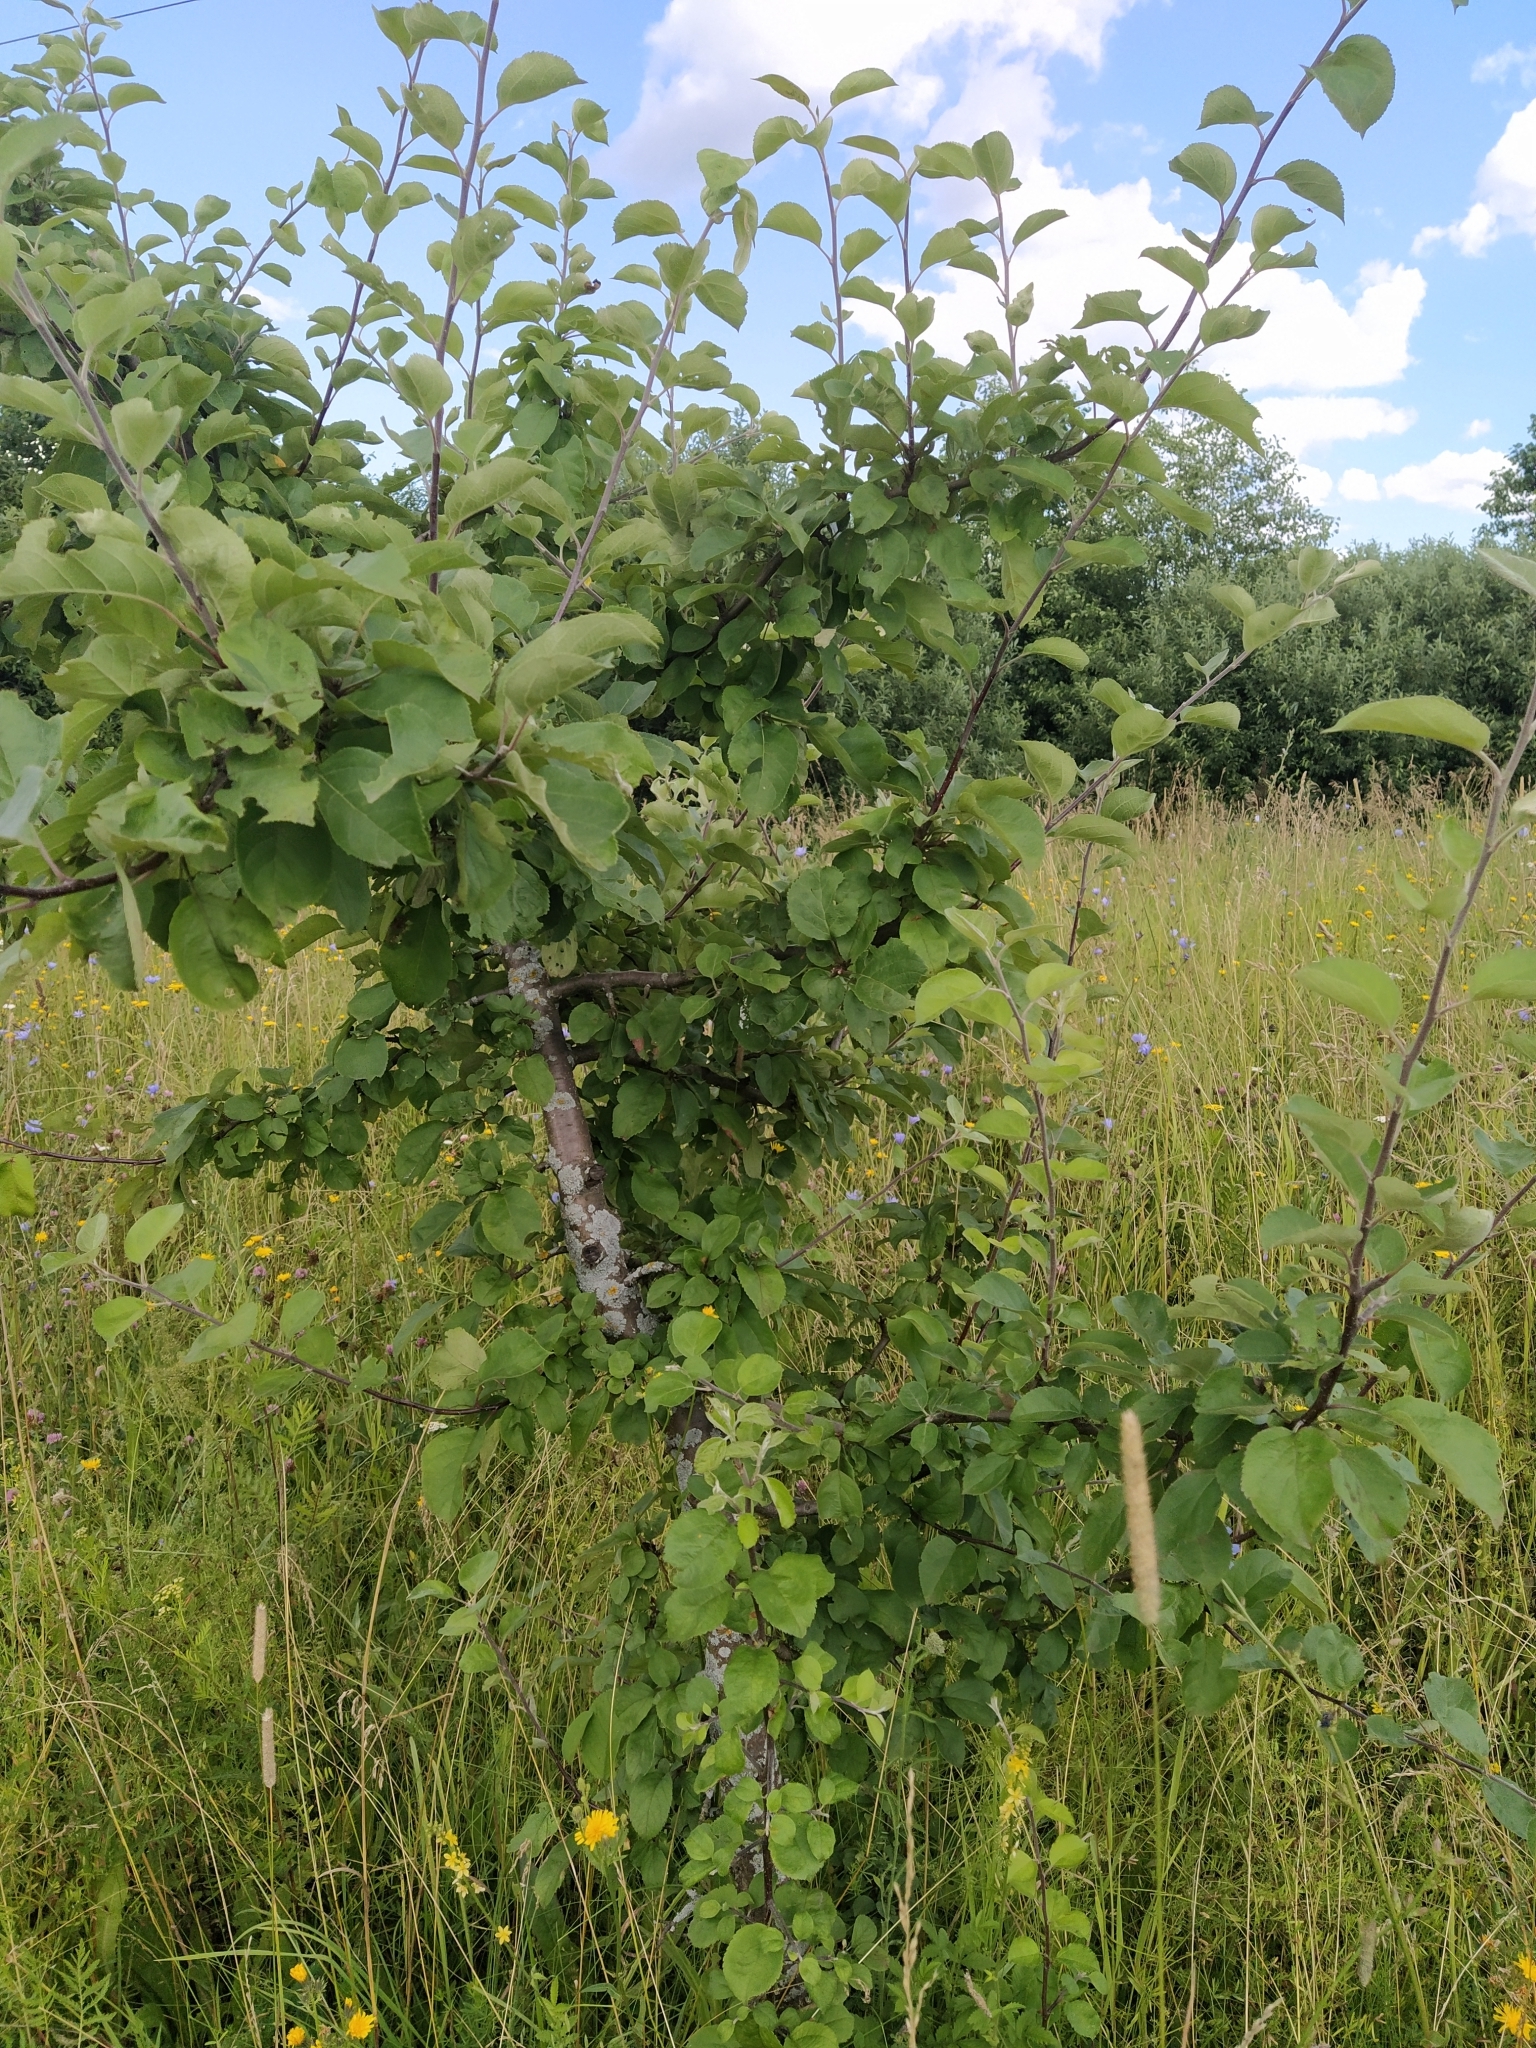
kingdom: Plantae
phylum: Tracheophyta
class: Magnoliopsida
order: Rosales
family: Rosaceae
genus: Malus
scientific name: Malus domestica
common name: Apple
